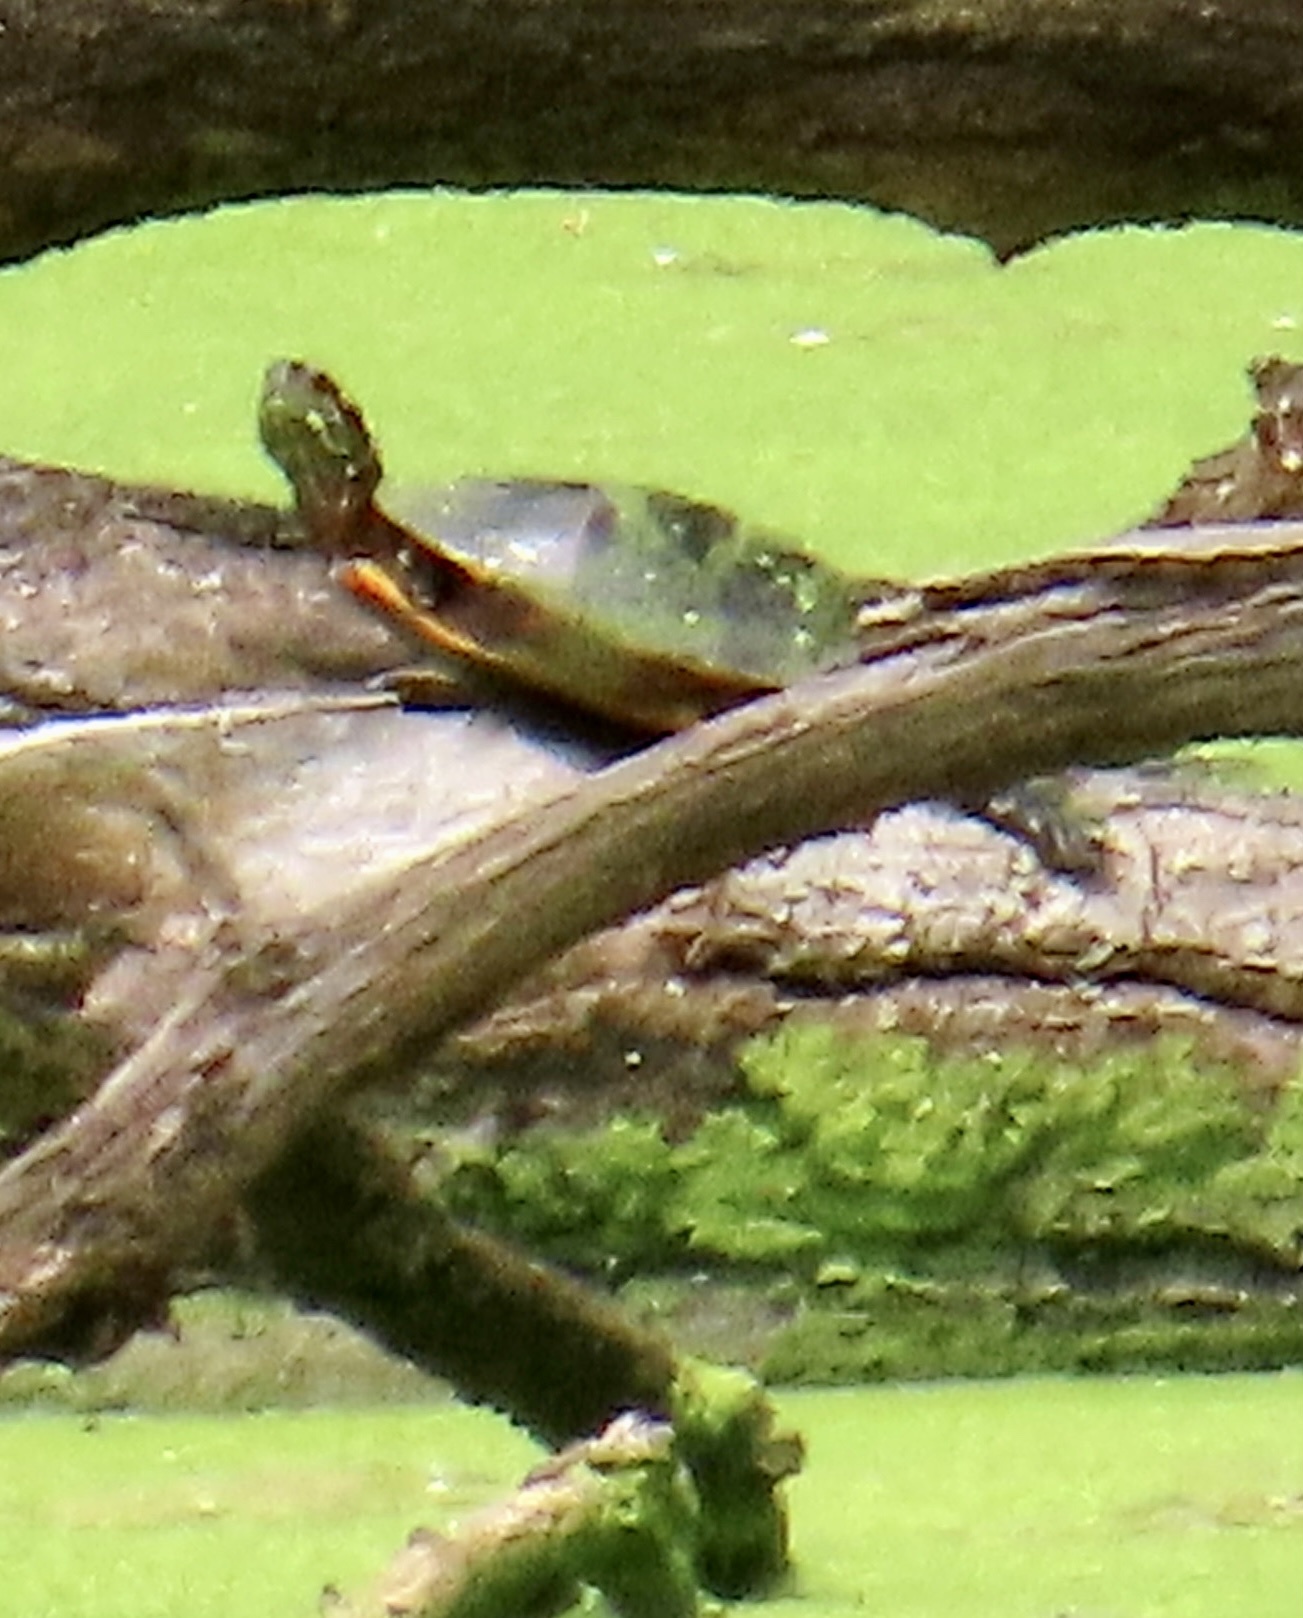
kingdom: Animalia
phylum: Chordata
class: Testudines
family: Emydidae
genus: Chrysemys
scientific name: Chrysemys picta
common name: Painted turtle
